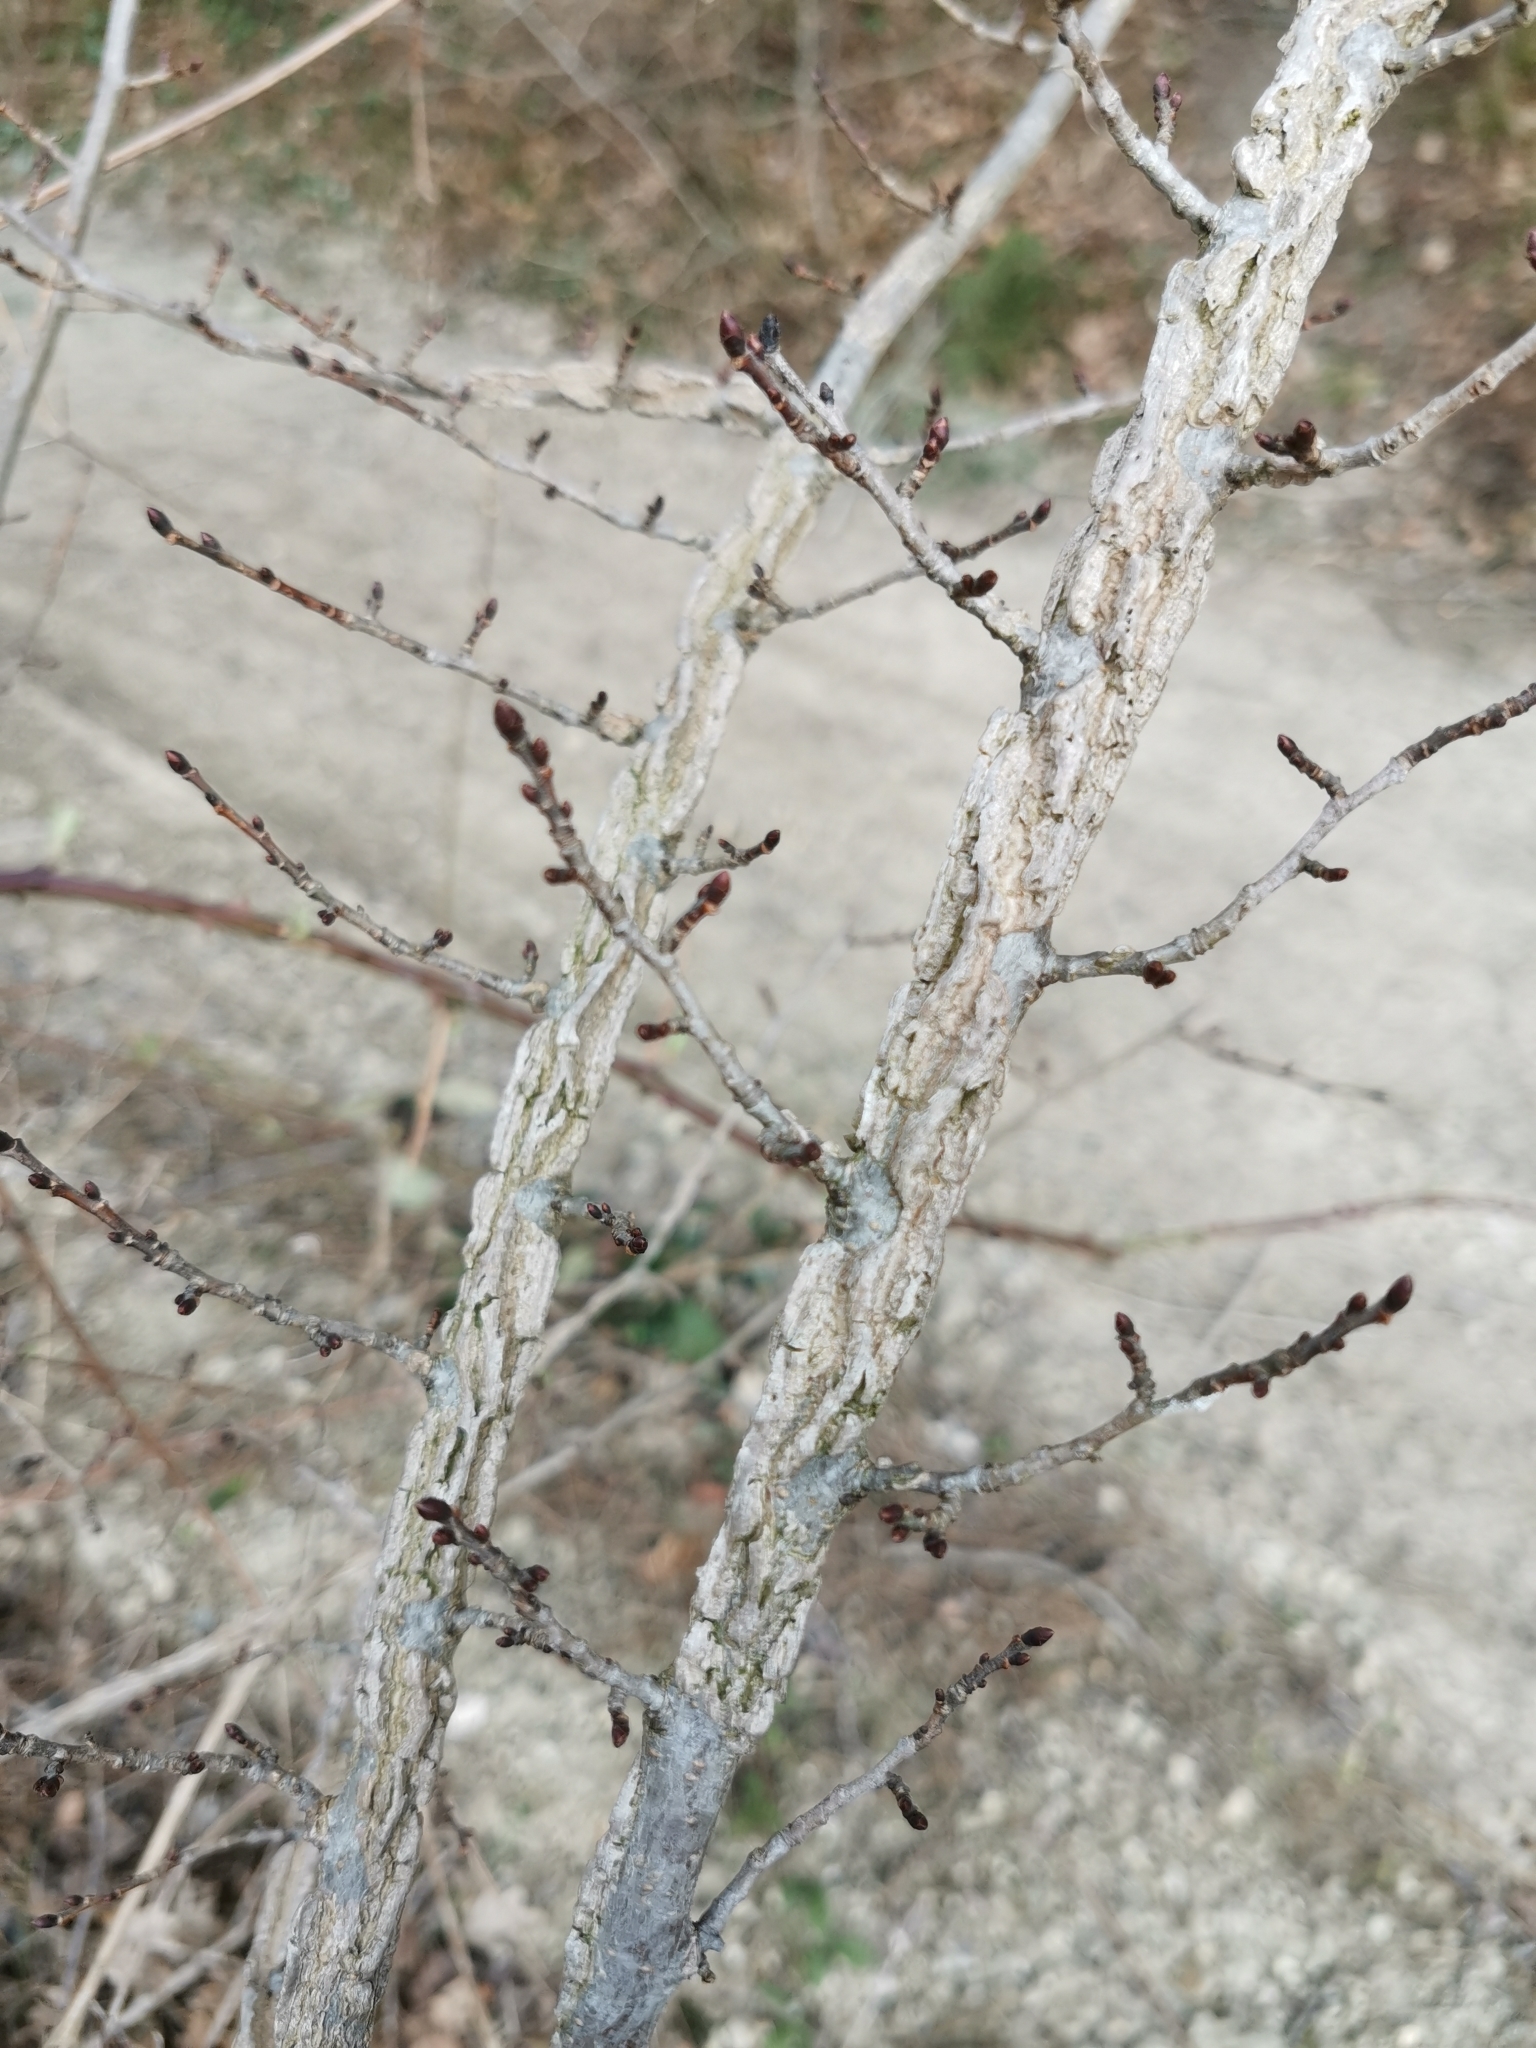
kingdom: Plantae
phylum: Tracheophyta
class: Magnoliopsida
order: Rosales
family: Ulmaceae
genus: Ulmus
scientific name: Ulmus minor
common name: Small-leaved elm
